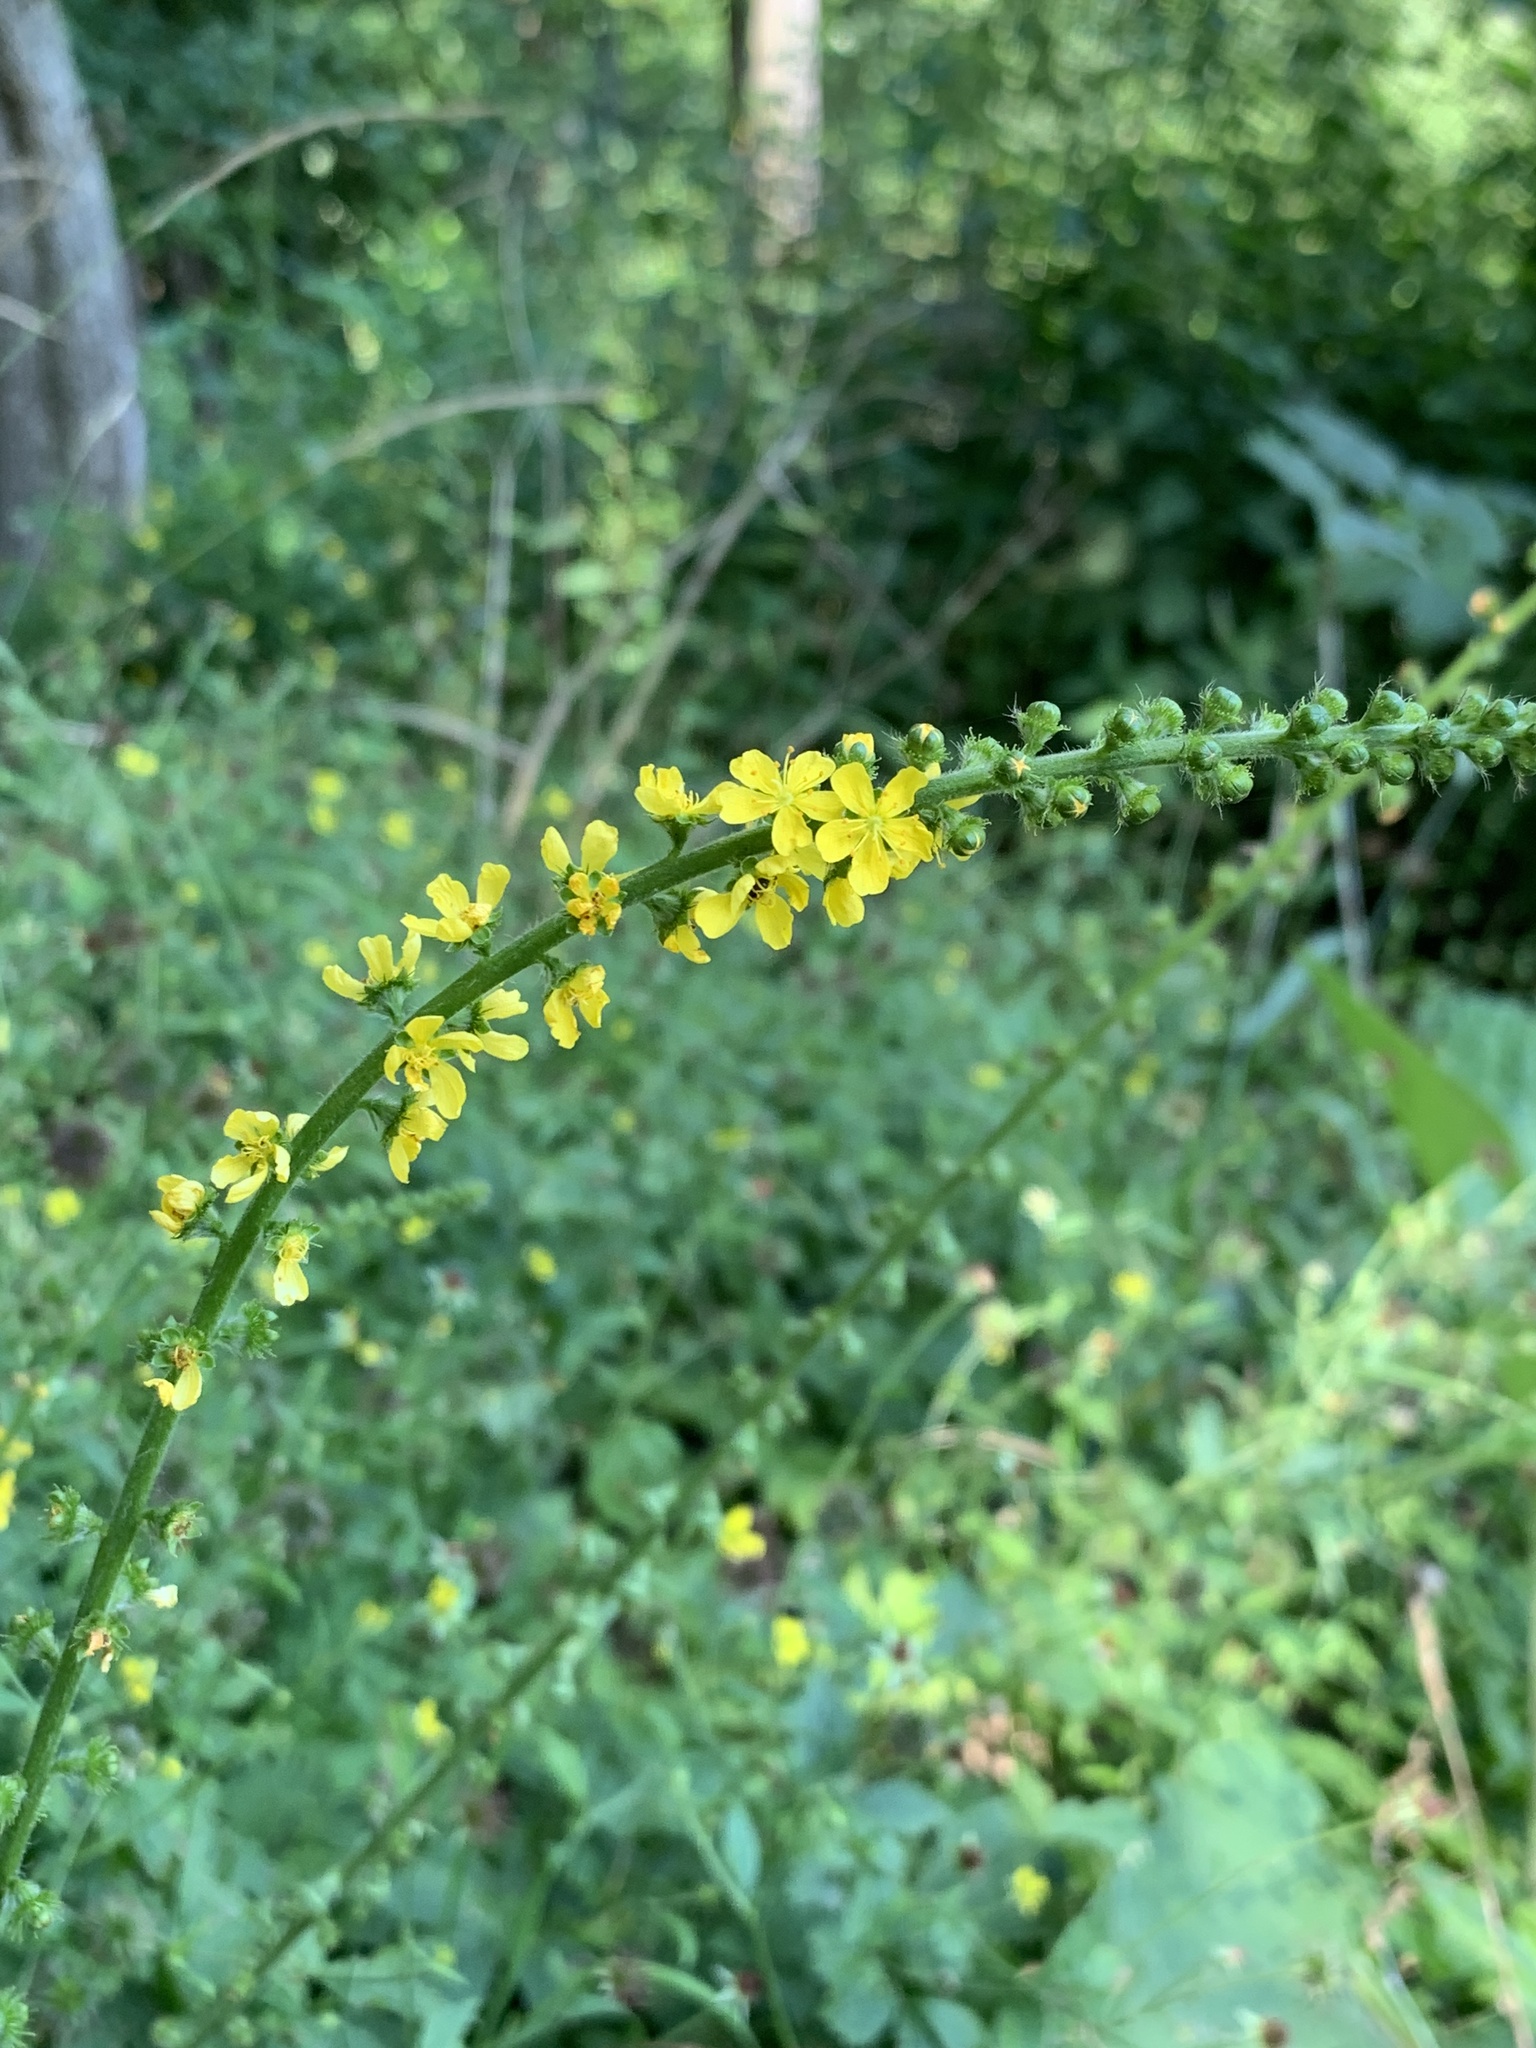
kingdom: Plantae
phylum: Tracheophyta
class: Magnoliopsida
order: Rosales
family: Rosaceae
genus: Agrimonia
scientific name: Agrimonia eupatoria
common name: Agrimony
